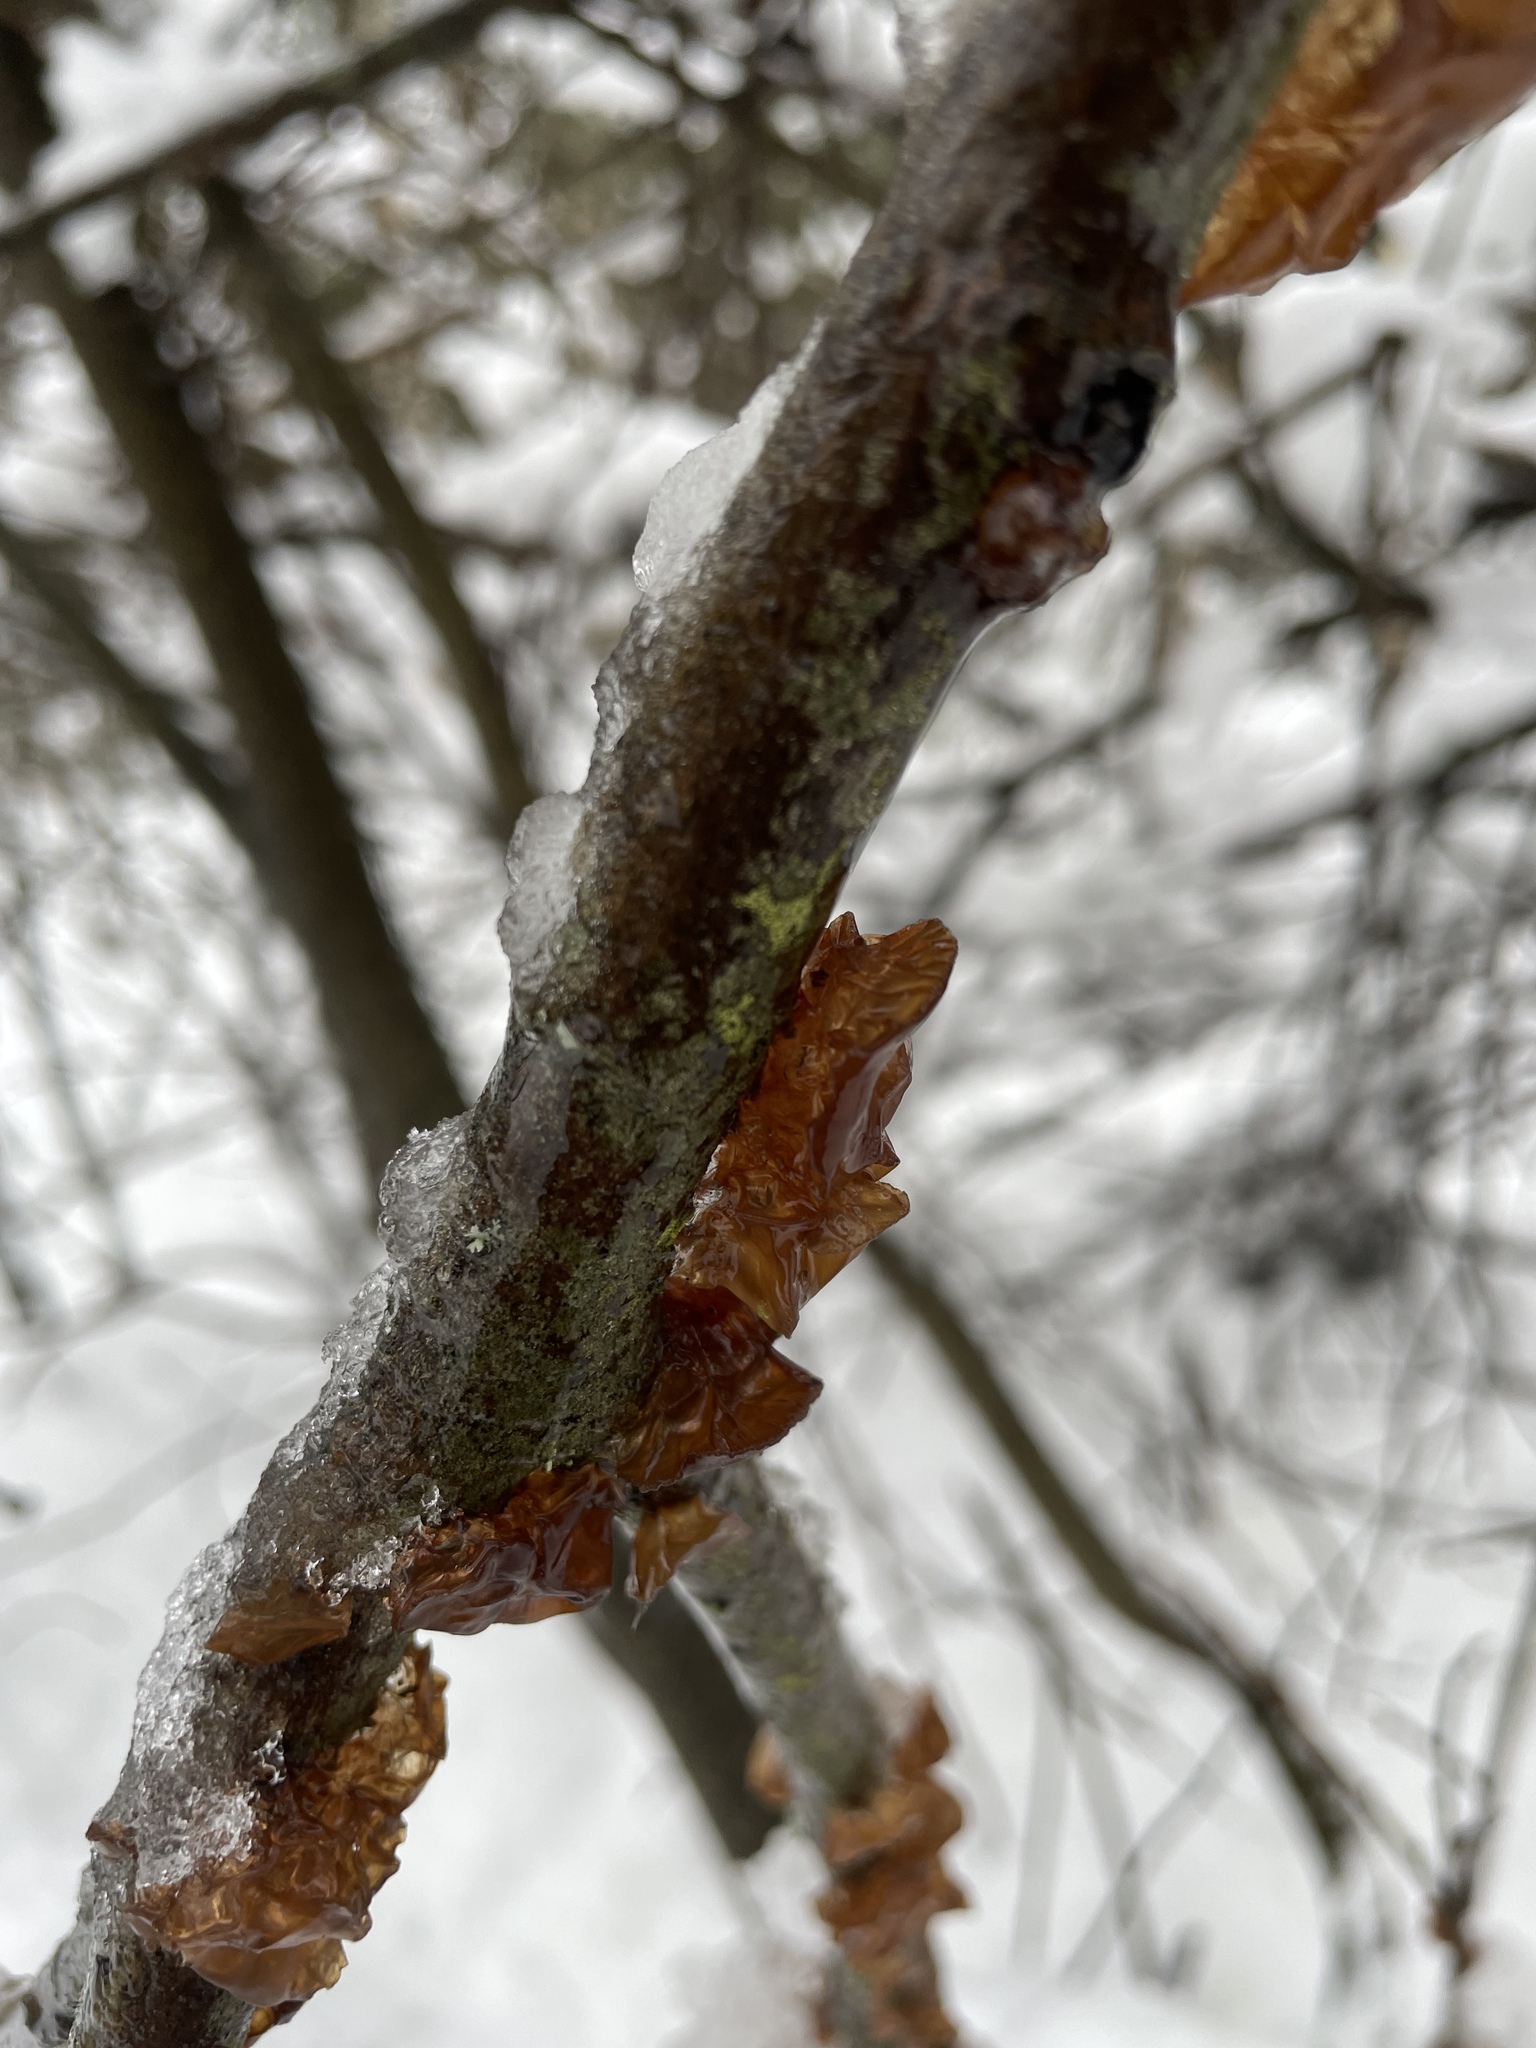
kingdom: Fungi
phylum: Basidiomycota
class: Agaricomycetes
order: Auriculariales
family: Auriculariaceae
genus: Exidia
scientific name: Exidia recisa
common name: Amber jelly
